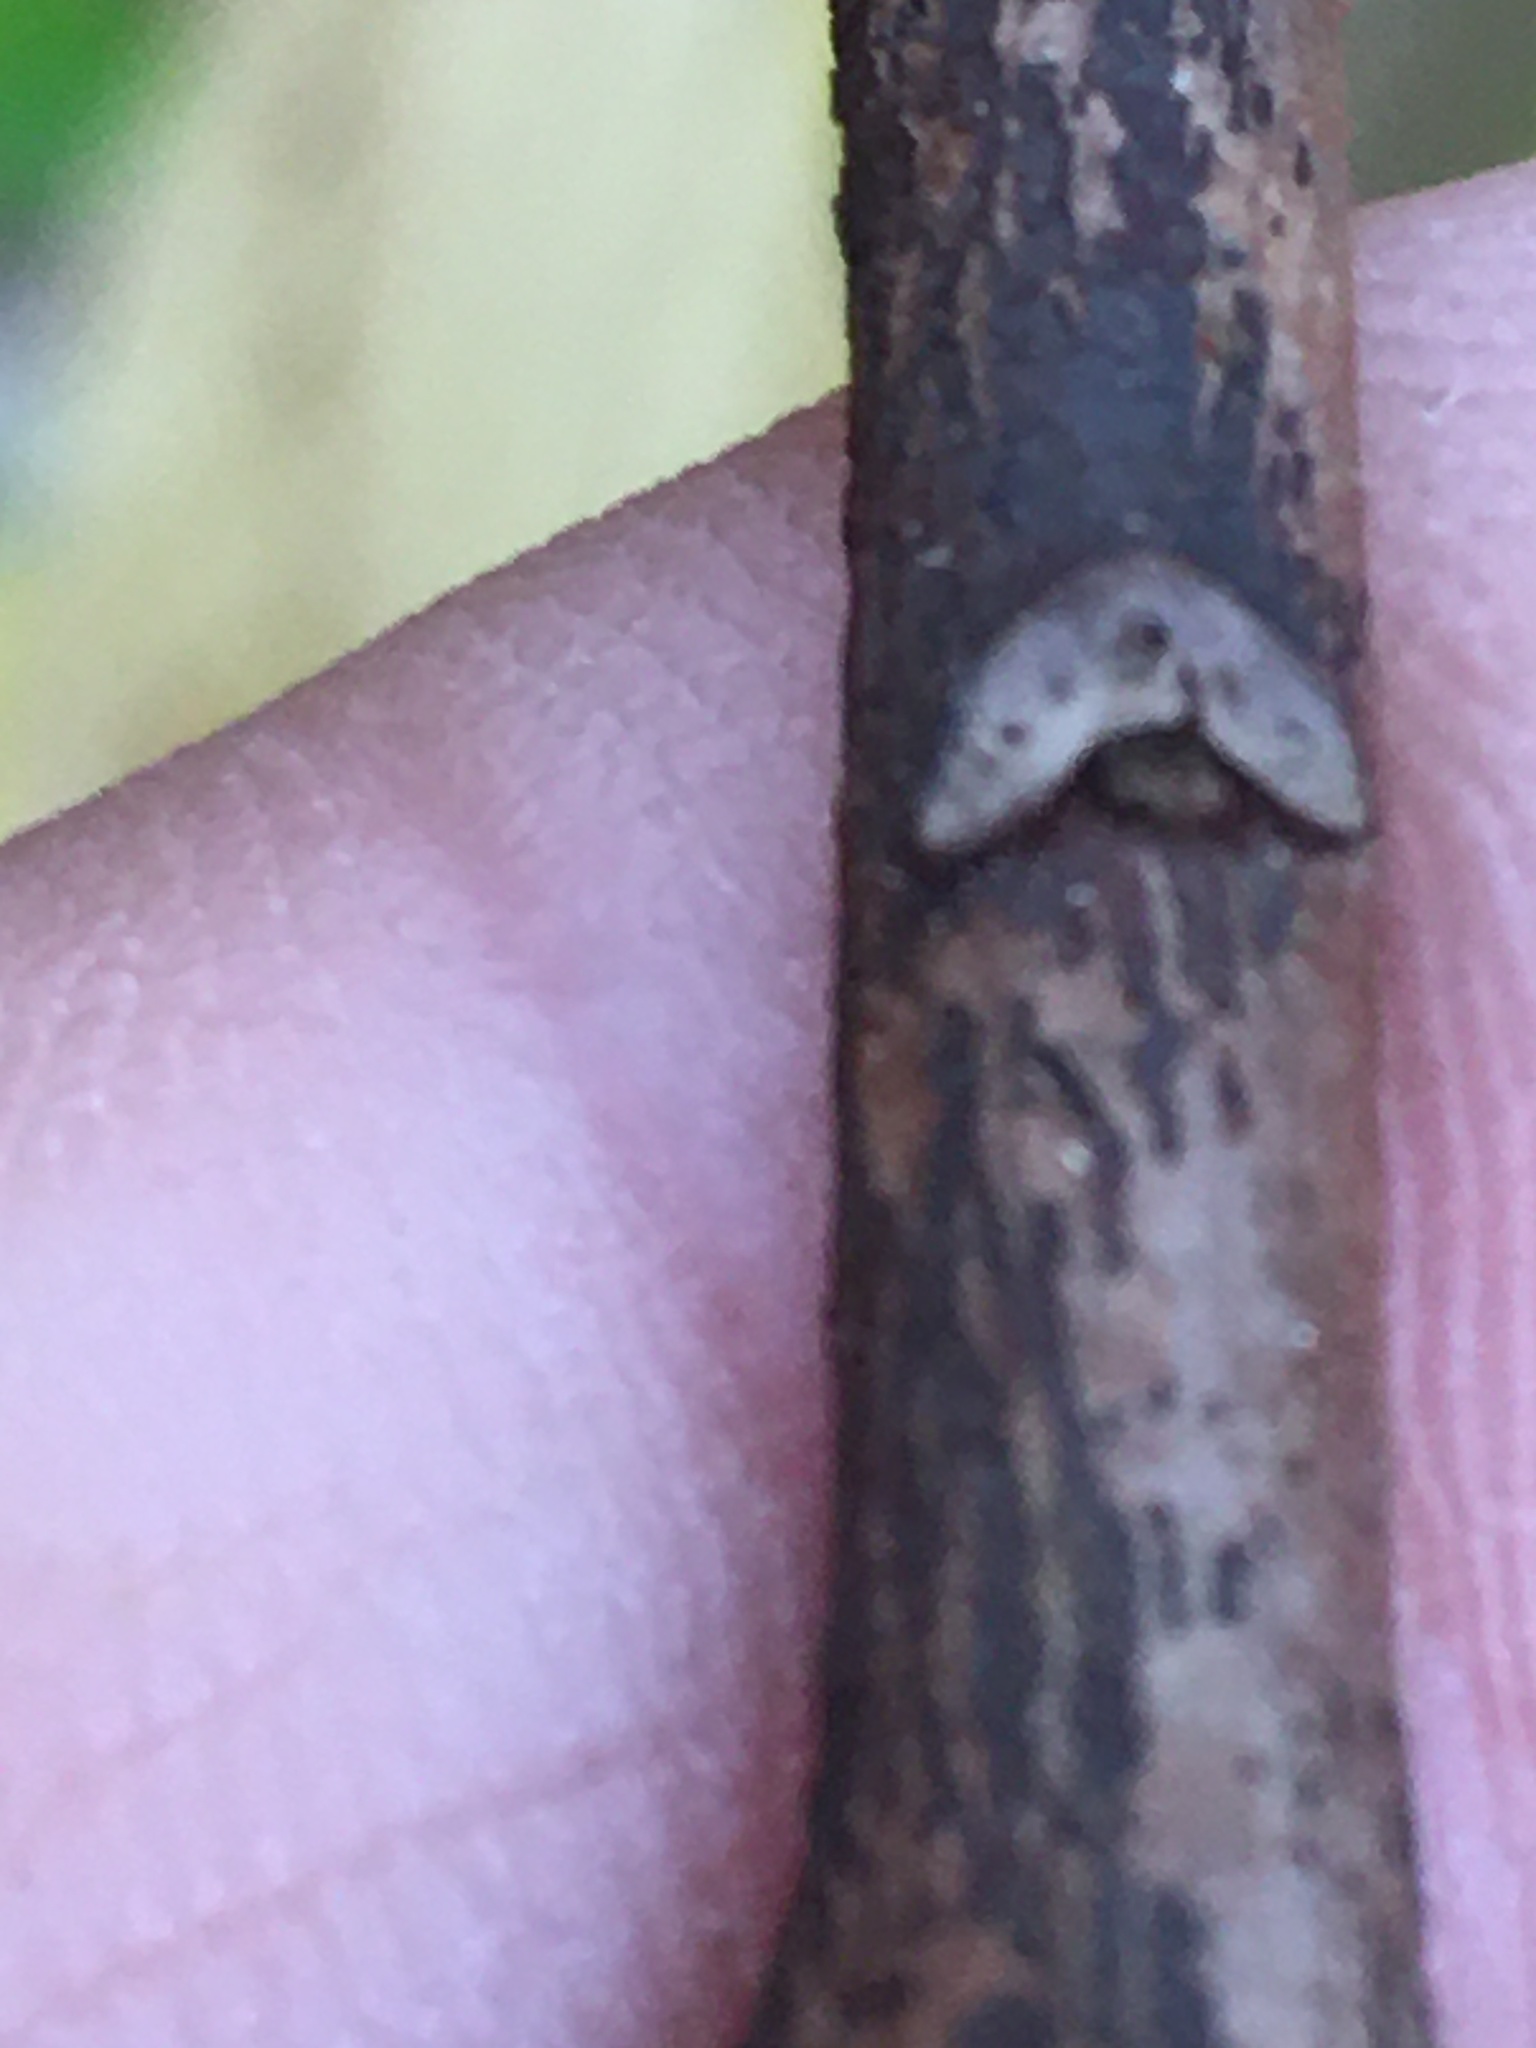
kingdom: Plantae
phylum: Tracheophyta
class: Magnoliopsida
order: Magnoliales
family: Annonaceae
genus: Asimina
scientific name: Asimina triloba
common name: Dog-banana
